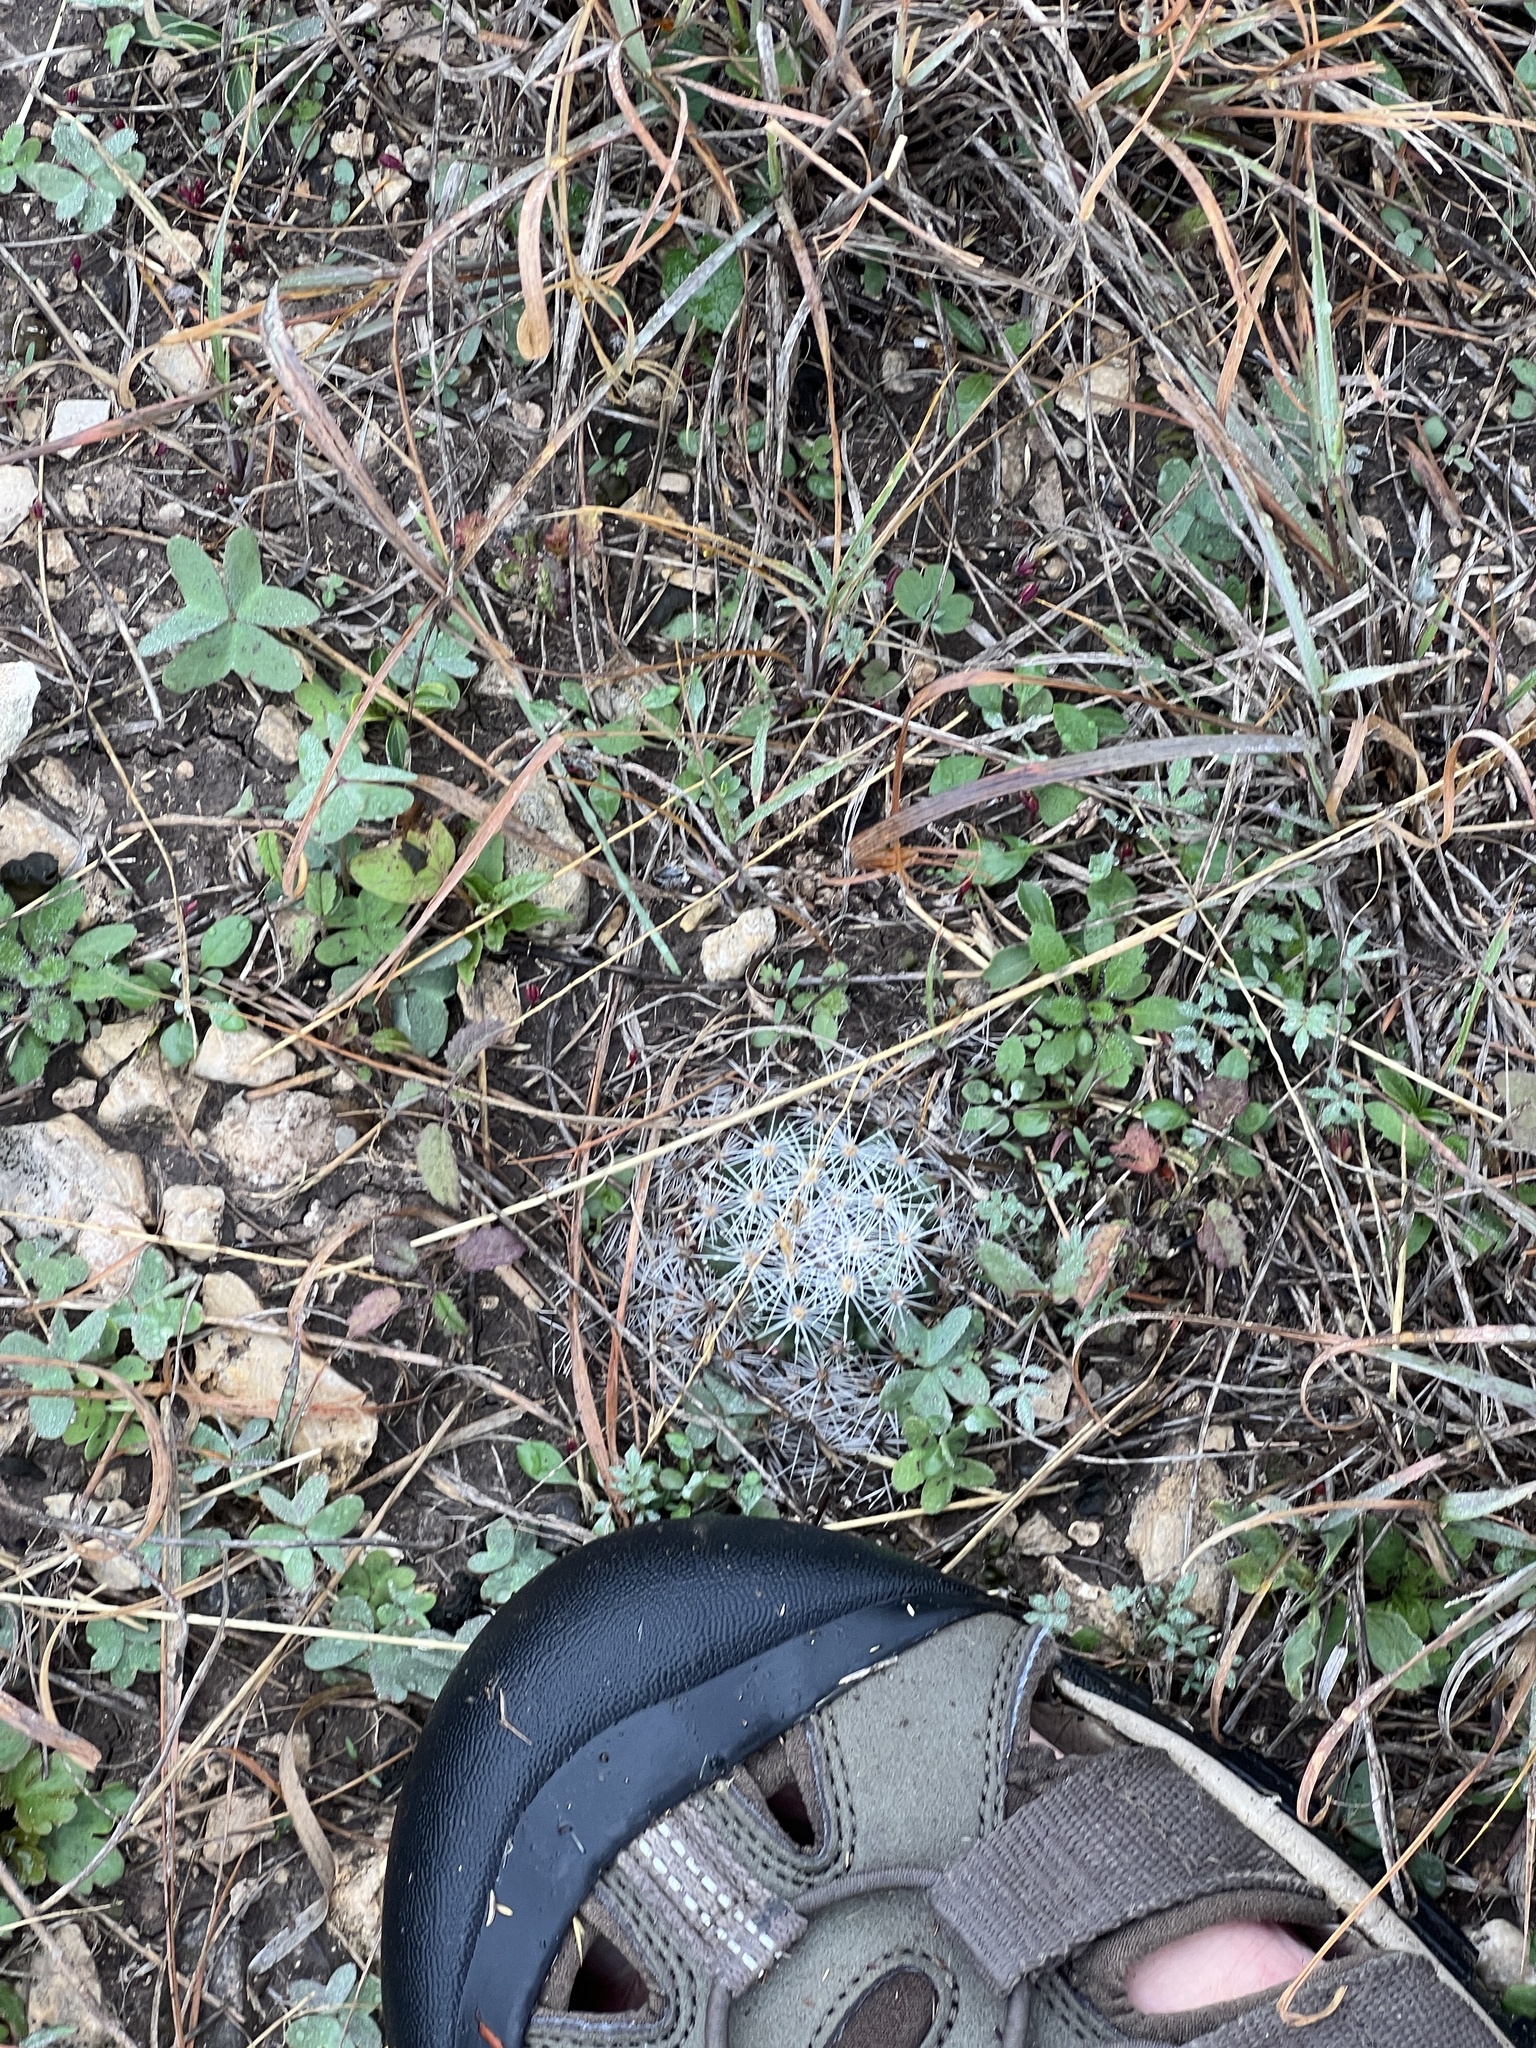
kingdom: Plantae
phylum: Tracheophyta
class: Magnoliopsida
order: Caryophyllales
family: Cactaceae
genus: Mammillaria
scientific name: Mammillaria heyderi
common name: Little nipple cactus
